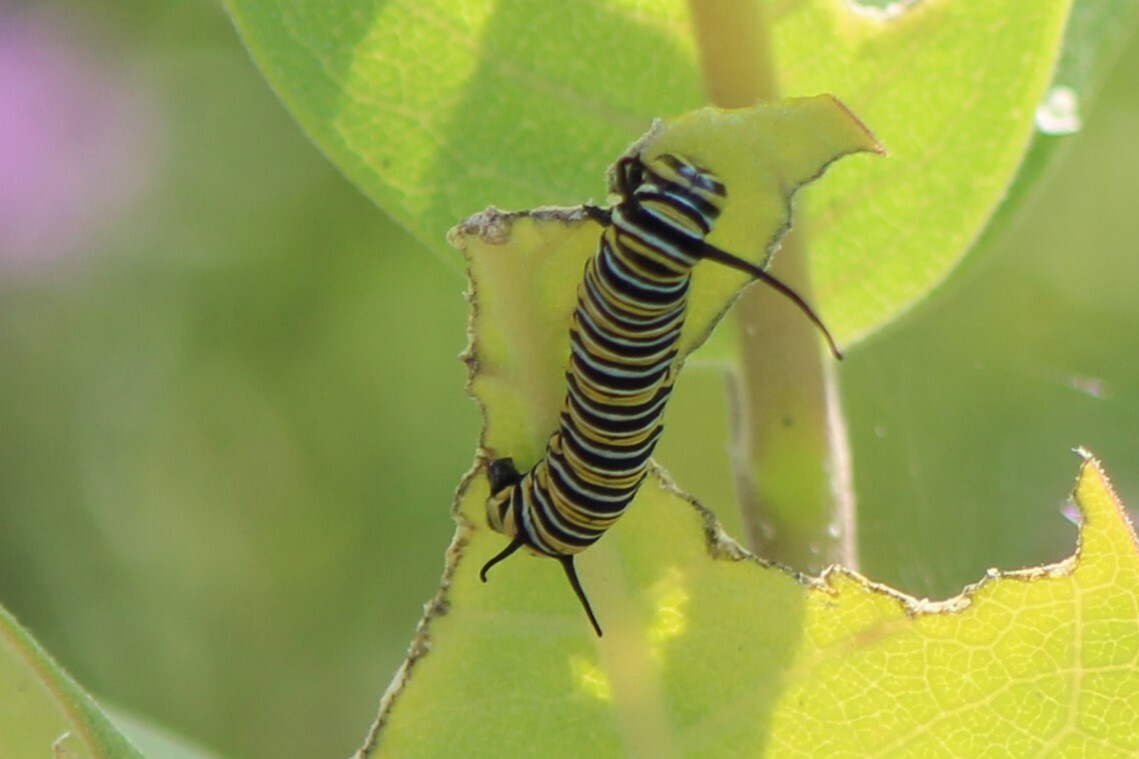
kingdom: Animalia
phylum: Arthropoda
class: Insecta
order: Lepidoptera
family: Nymphalidae
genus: Danaus
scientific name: Danaus plexippus
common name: Monarch
